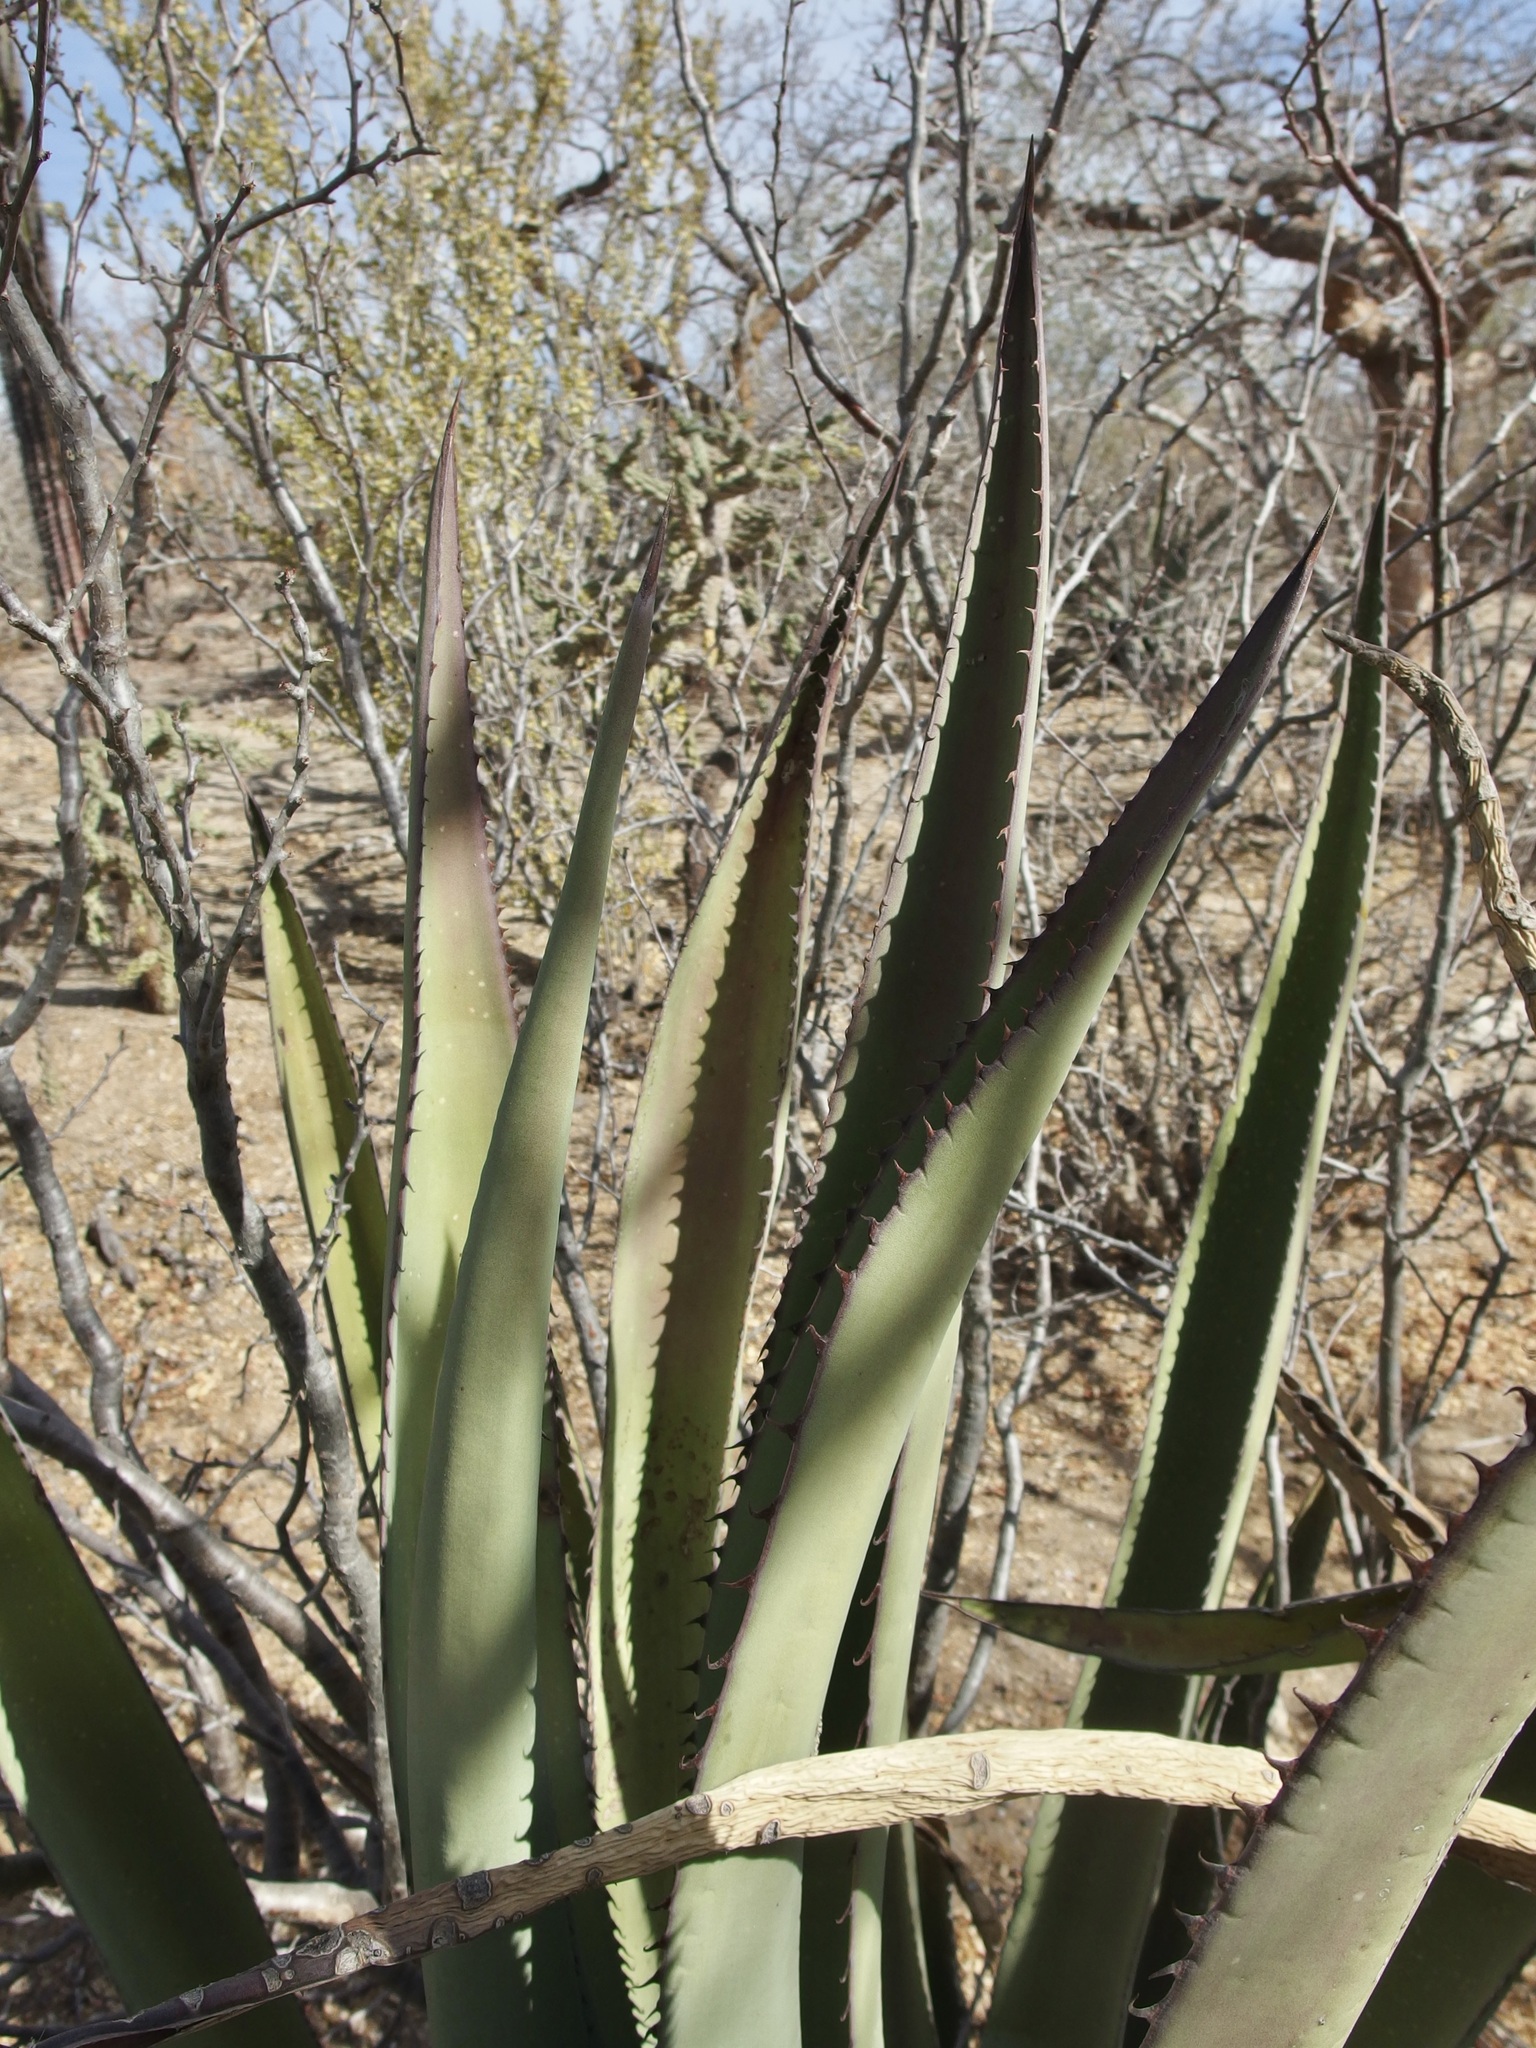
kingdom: Plantae
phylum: Tracheophyta
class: Liliopsida
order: Asparagales
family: Asparagaceae
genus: Agave
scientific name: Agave aurea
